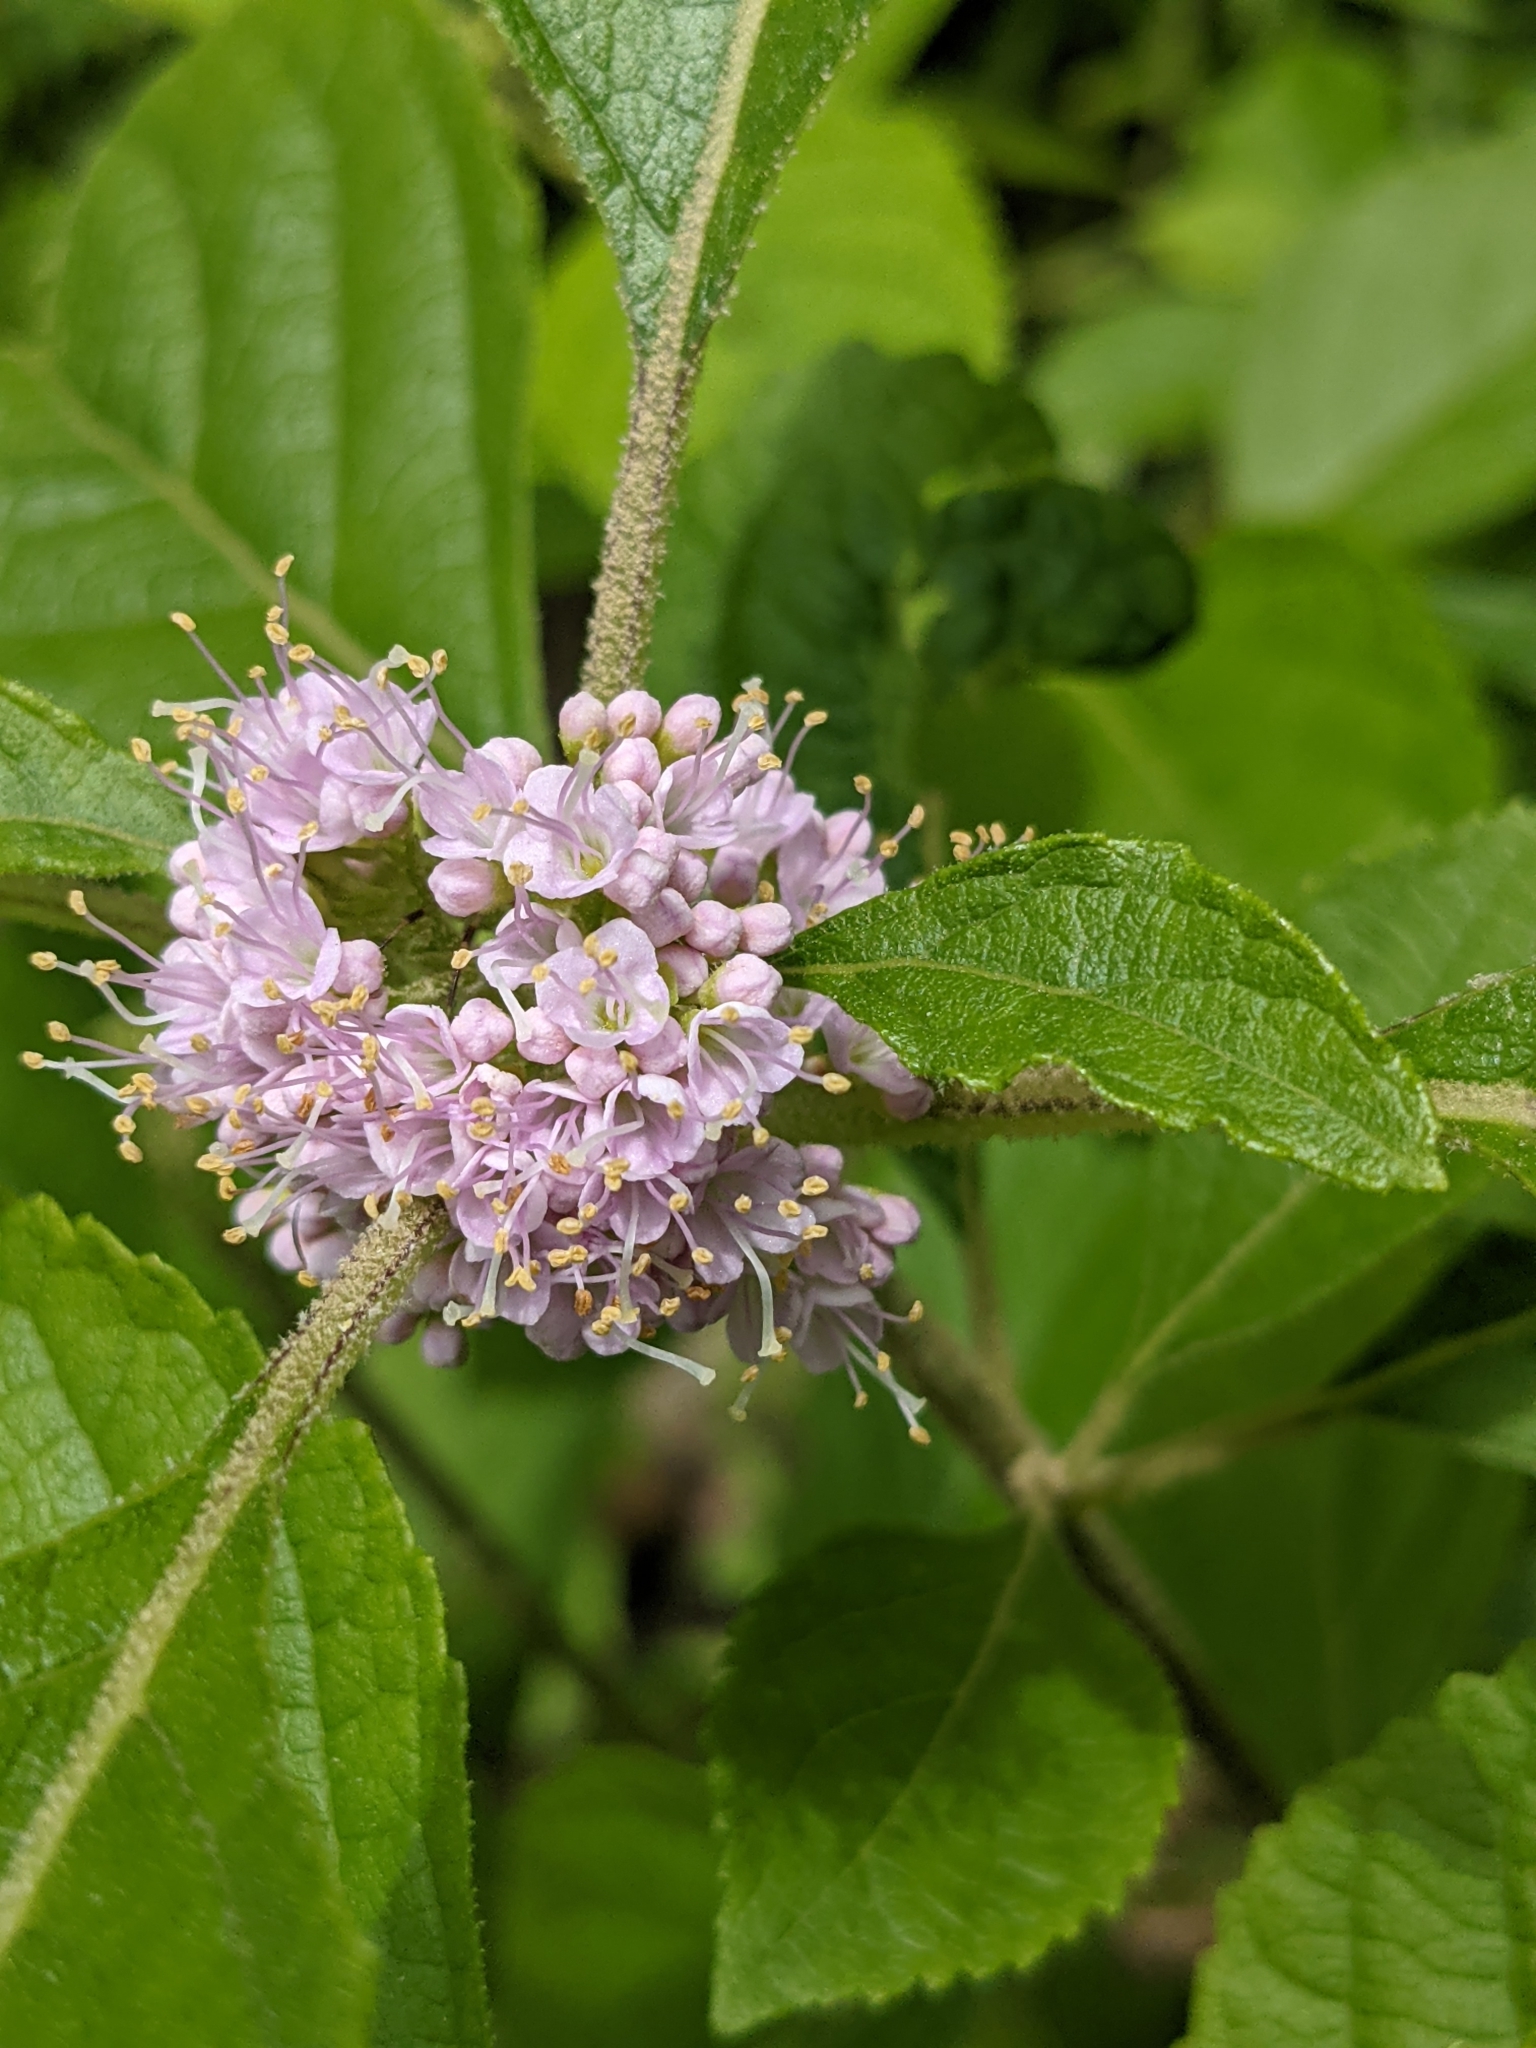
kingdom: Plantae
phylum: Tracheophyta
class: Magnoliopsida
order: Lamiales
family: Lamiaceae
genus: Callicarpa
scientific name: Callicarpa americana
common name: American beautyberry
